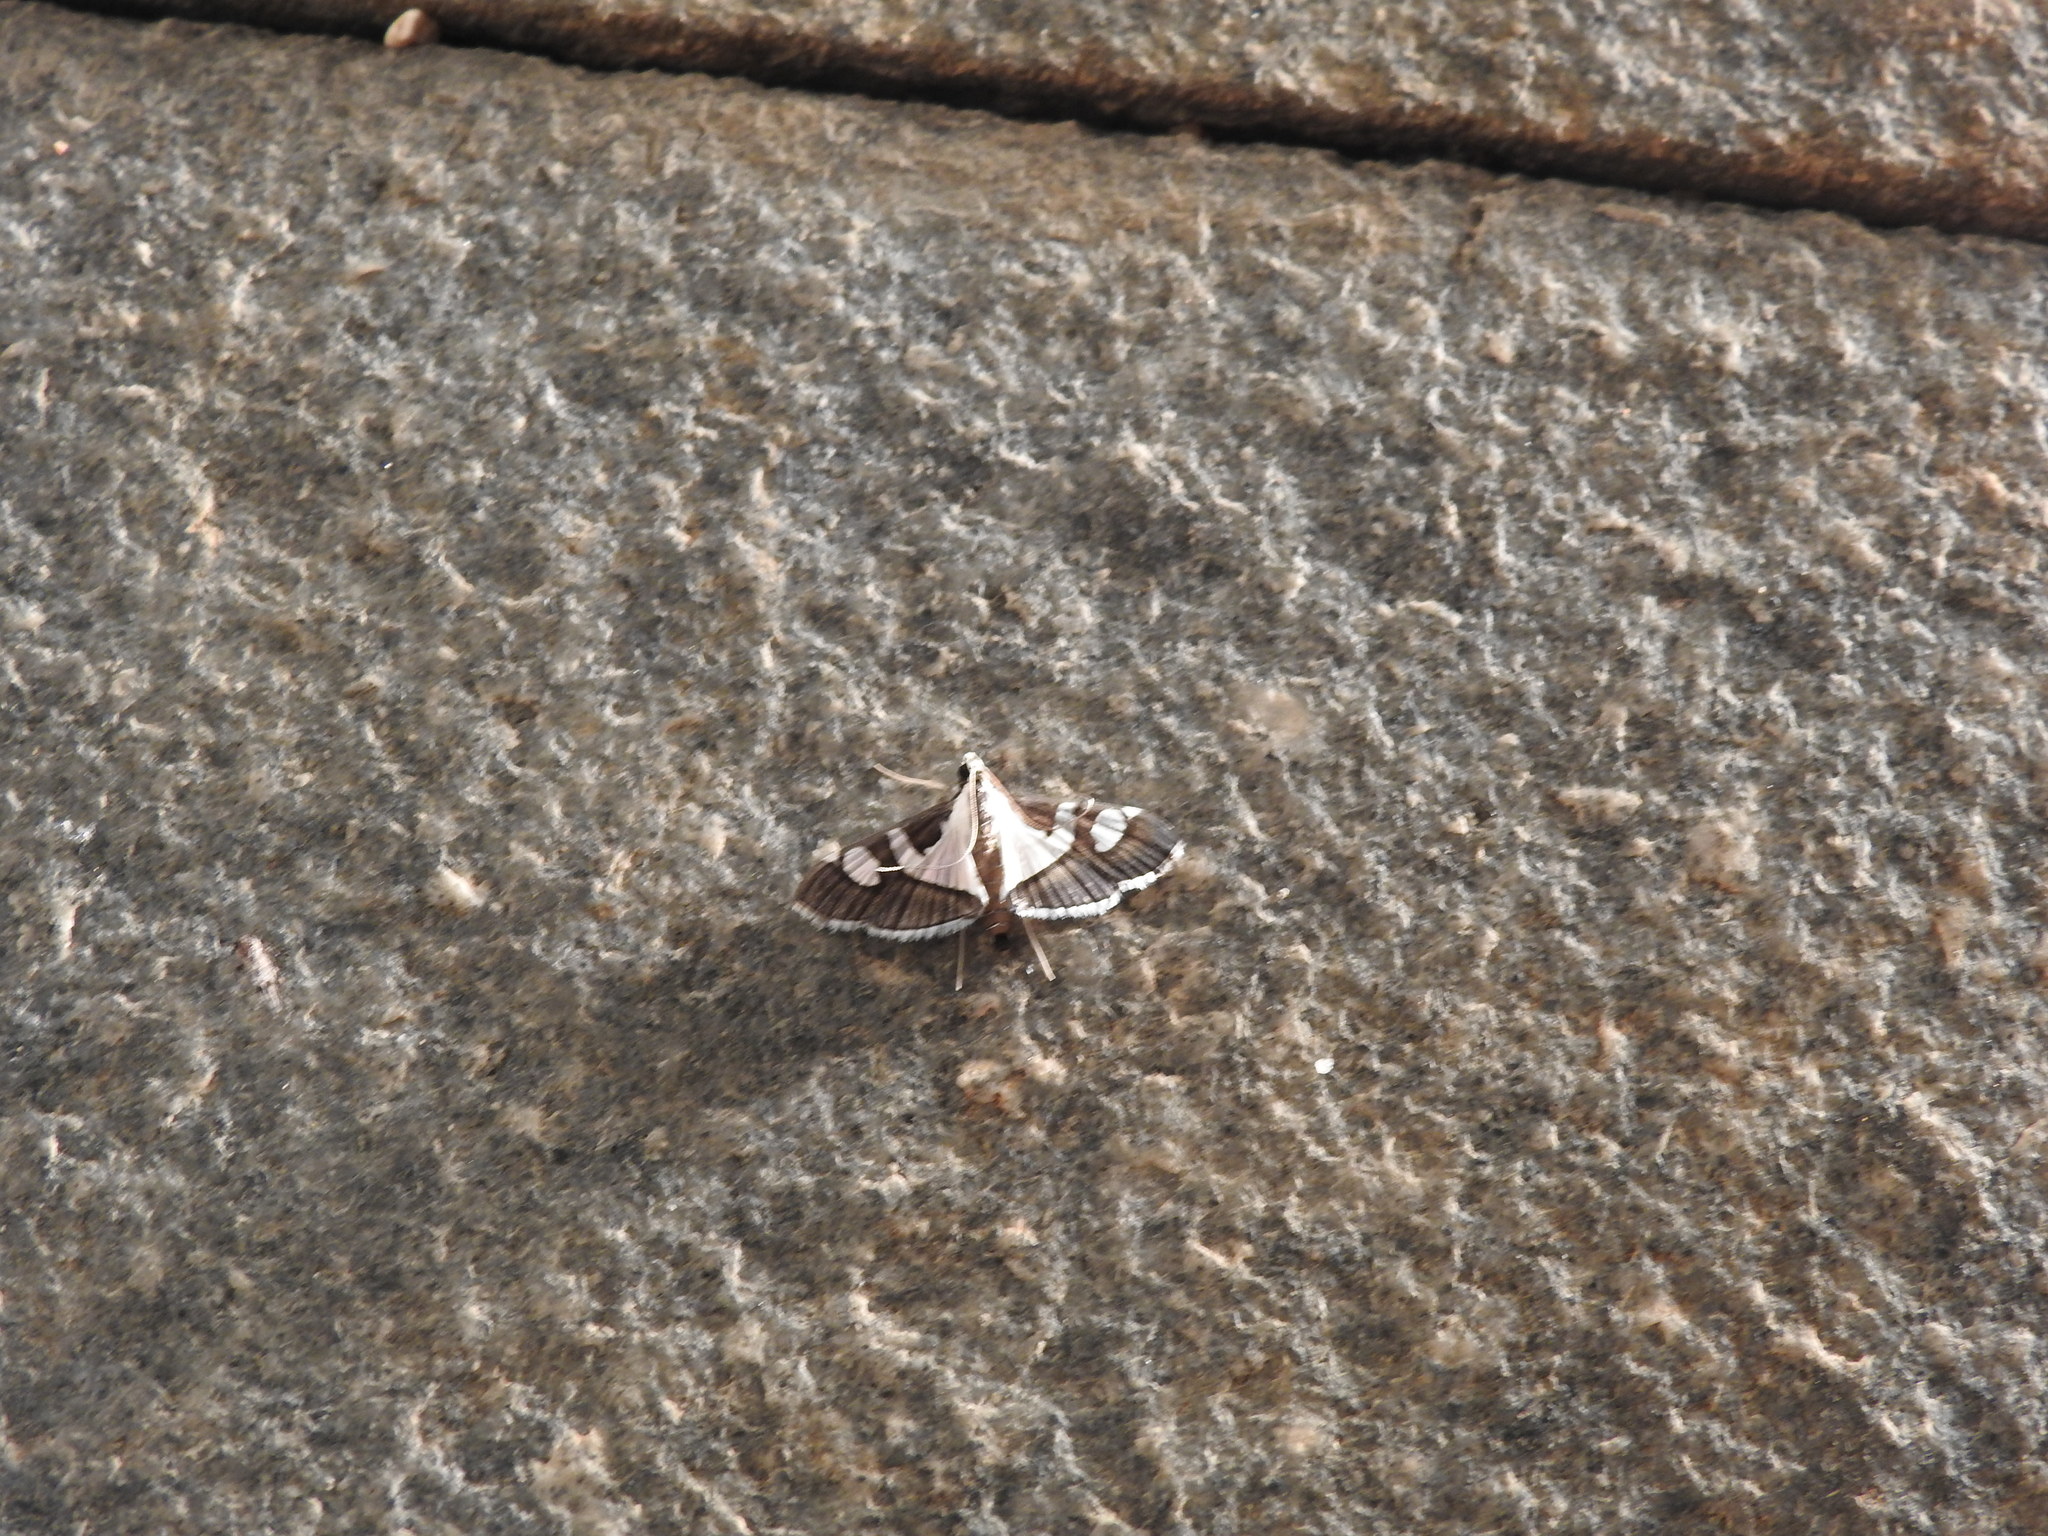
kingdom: Animalia
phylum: Arthropoda
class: Insecta
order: Lepidoptera
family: Crambidae
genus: Glyphodes
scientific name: Glyphodes bicolor
